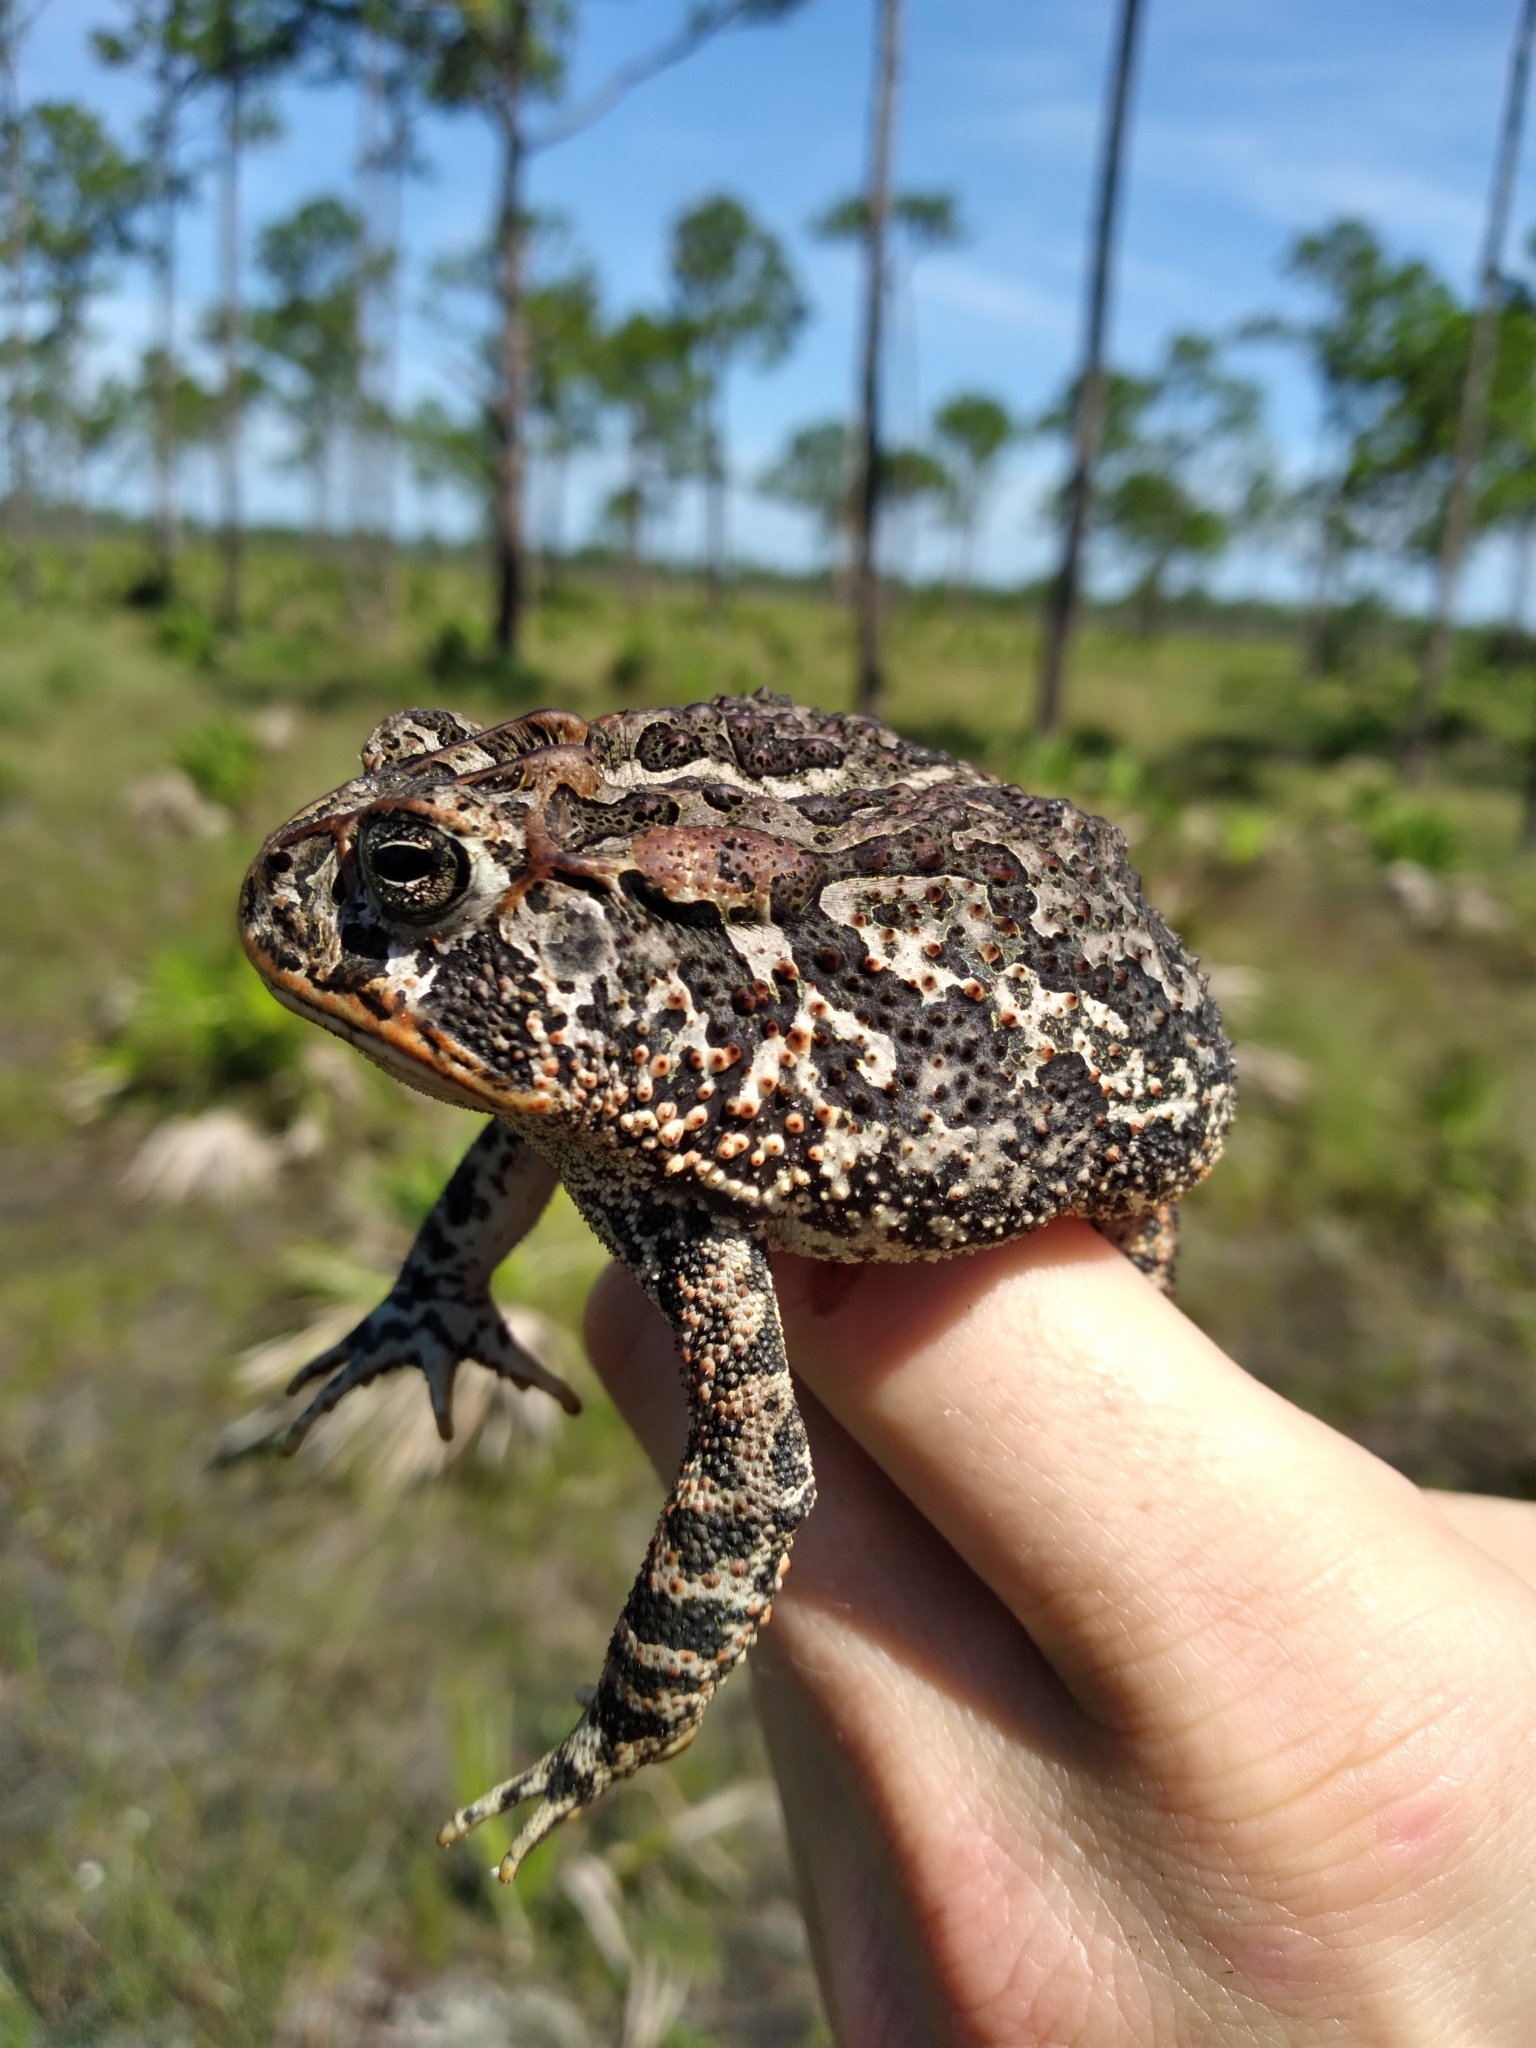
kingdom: Animalia
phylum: Chordata
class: Amphibia
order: Anura
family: Bufonidae
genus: Anaxyrus
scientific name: Anaxyrus terrestris
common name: Southern toad
